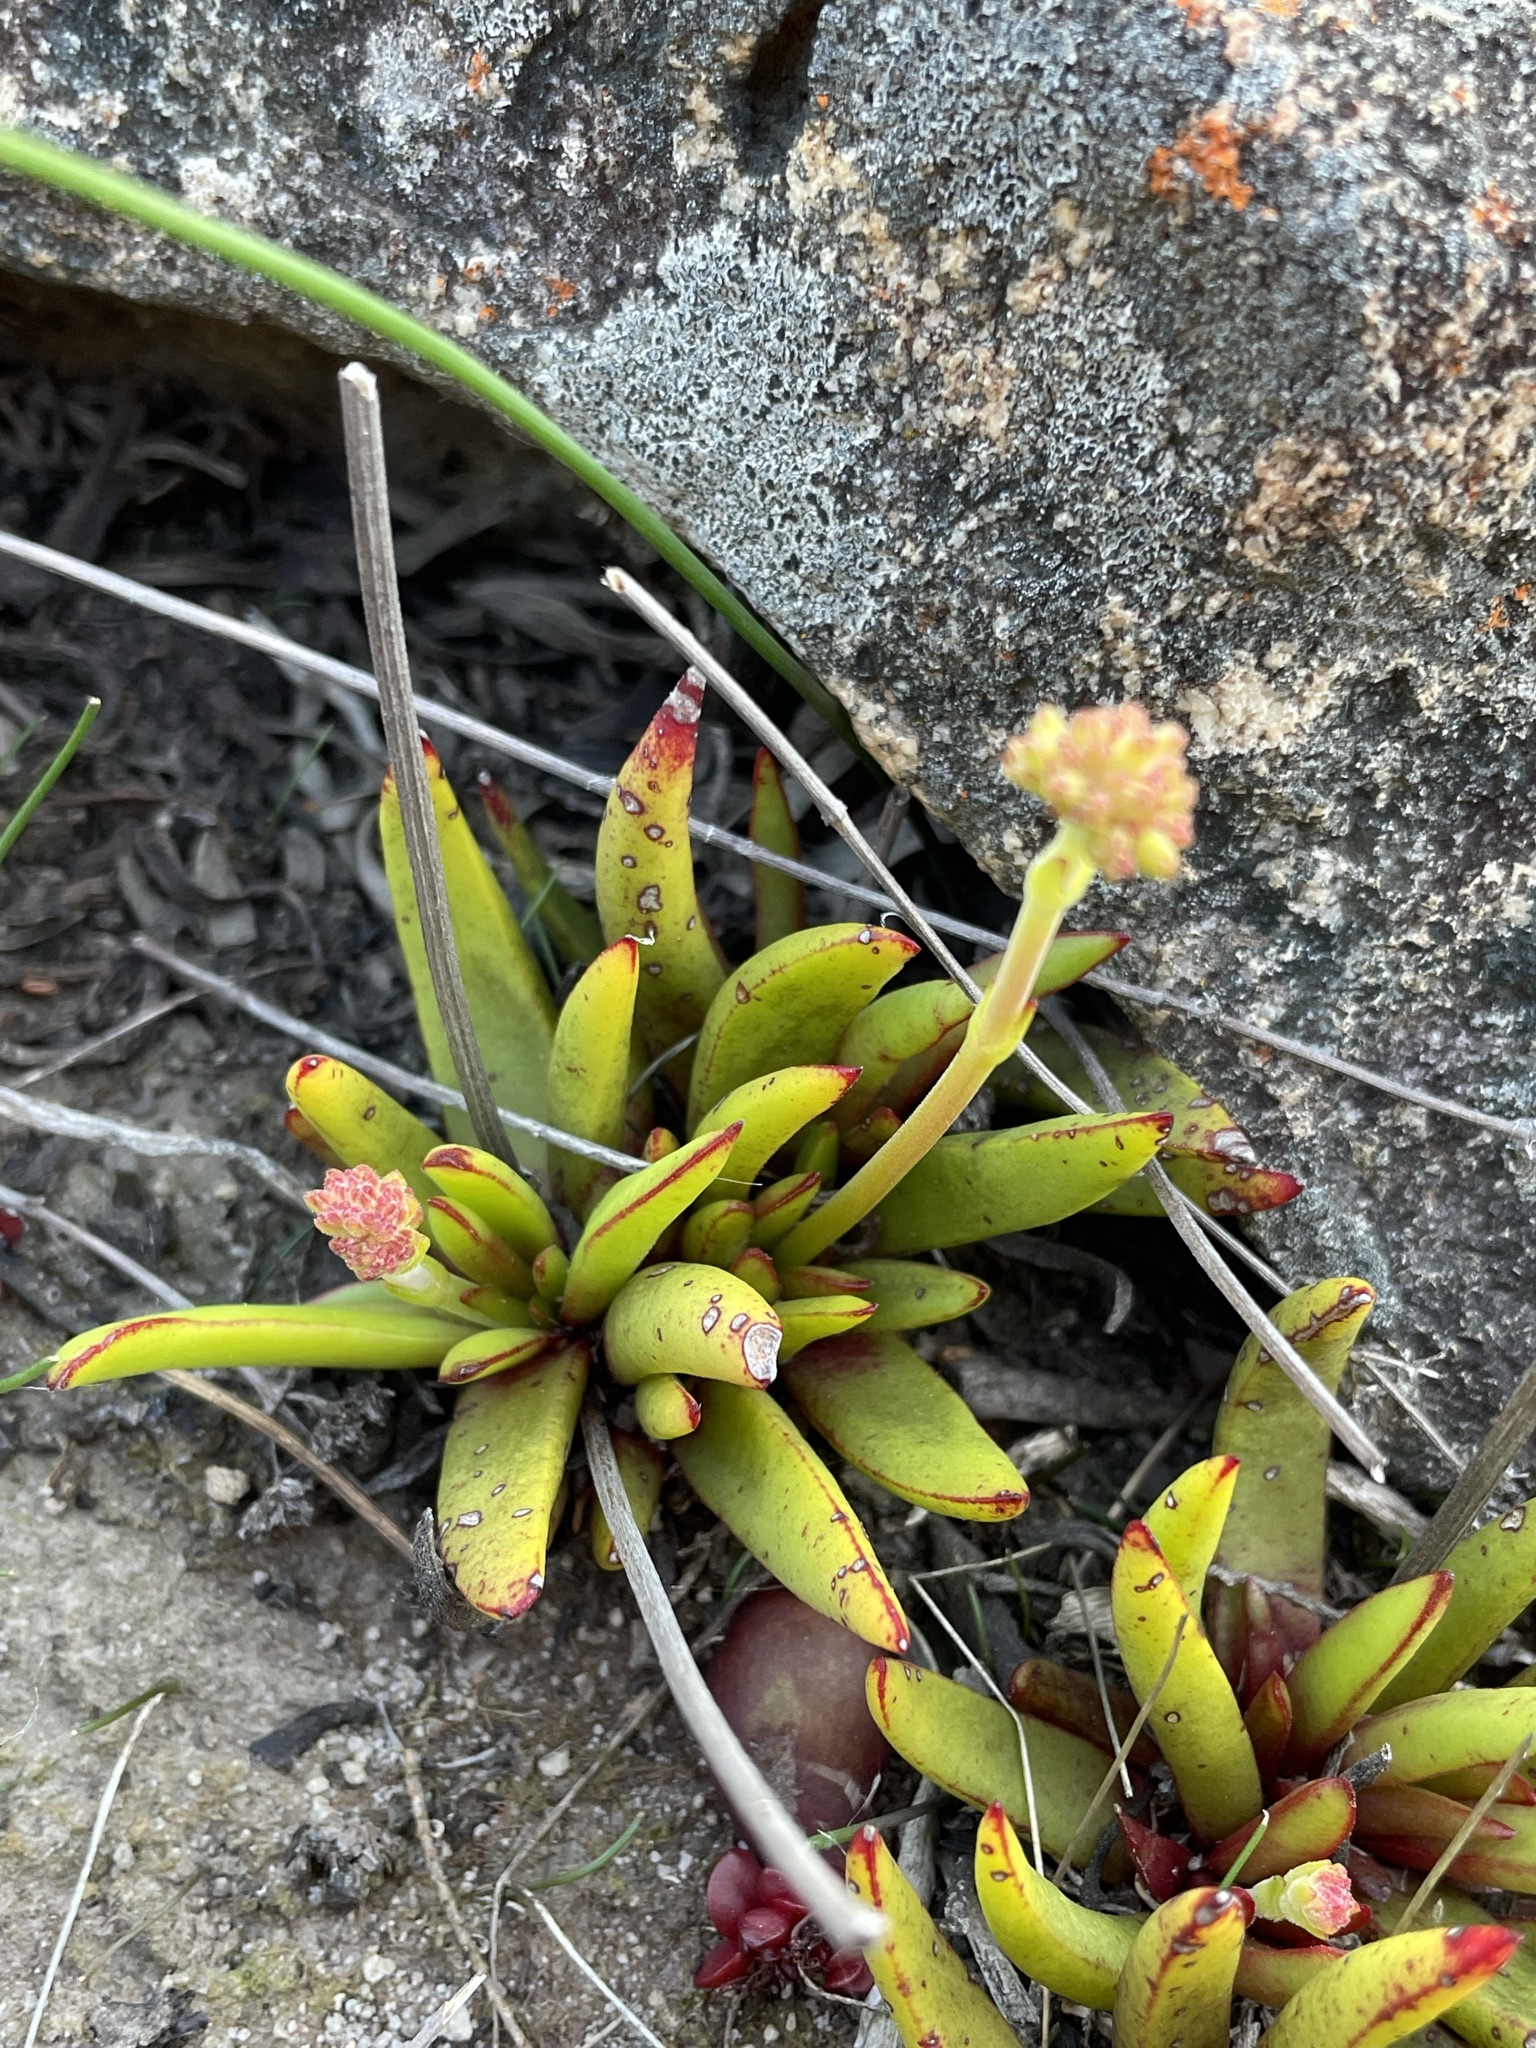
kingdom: Plantae
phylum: Tracheophyta
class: Magnoliopsida
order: Saxifragales
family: Crassulaceae
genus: Crassula
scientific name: Crassula nudicaulis
